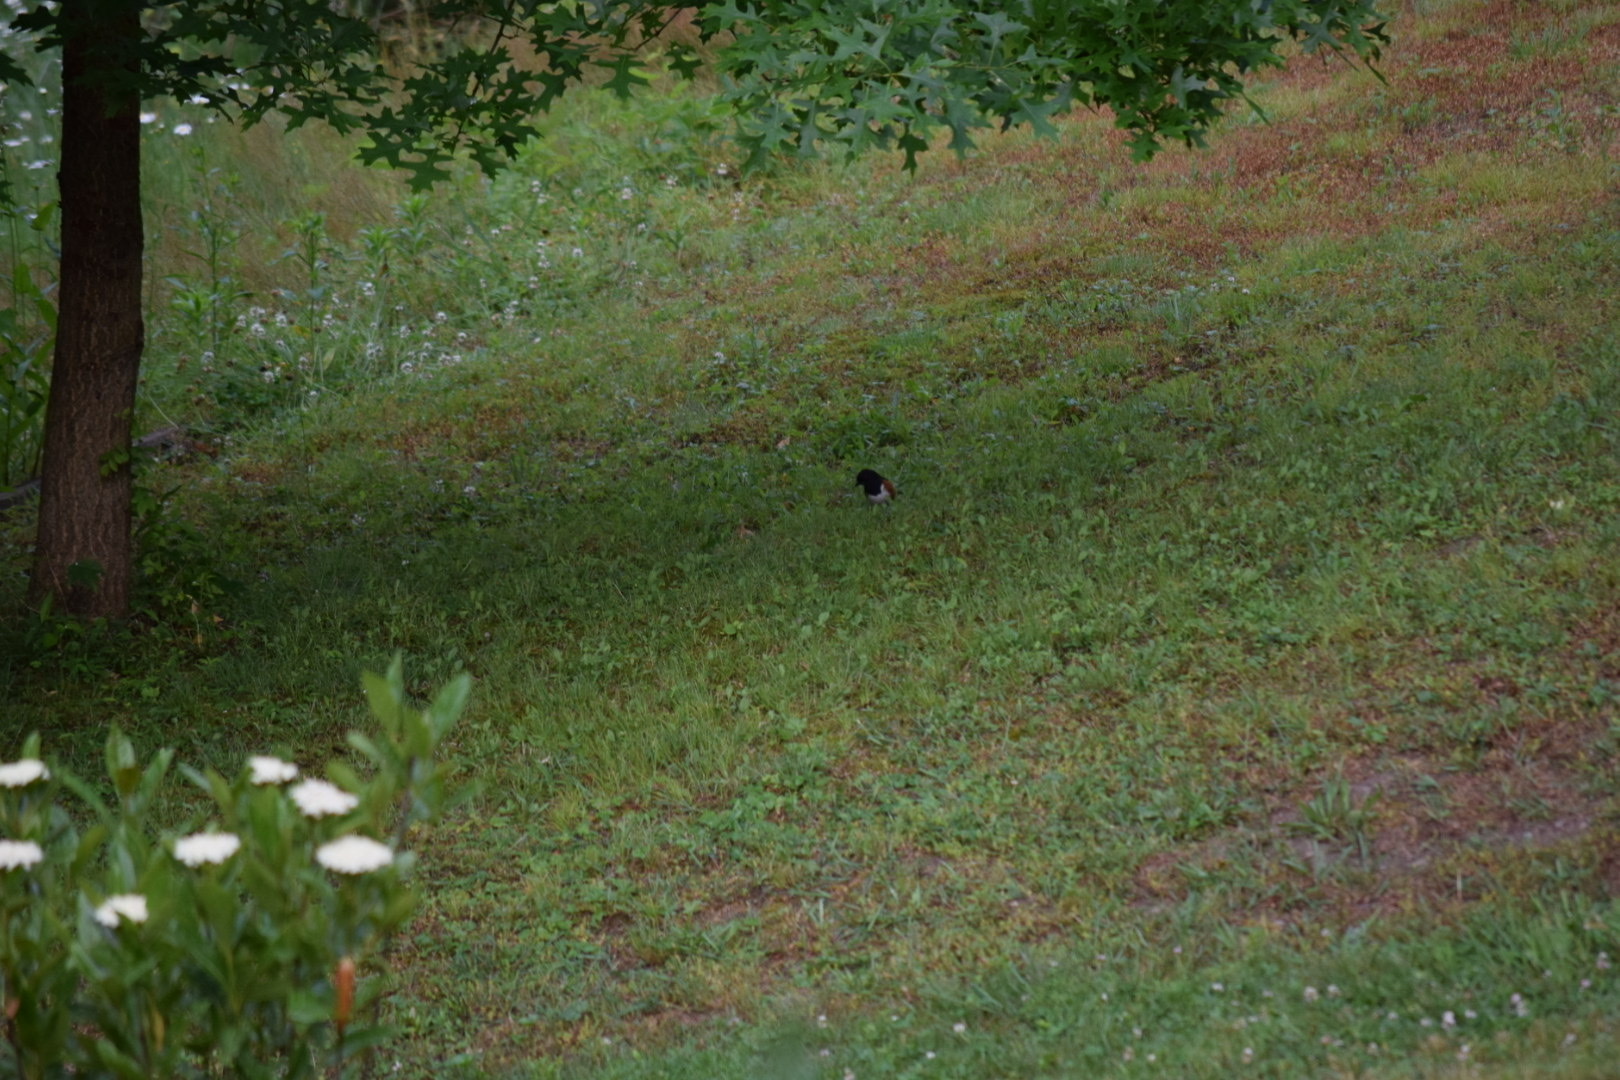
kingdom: Animalia
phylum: Chordata
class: Aves
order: Passeriformes
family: Passerellidae
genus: Pipilo
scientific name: Pipilo erythrophthalmus
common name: Eastern towhee
